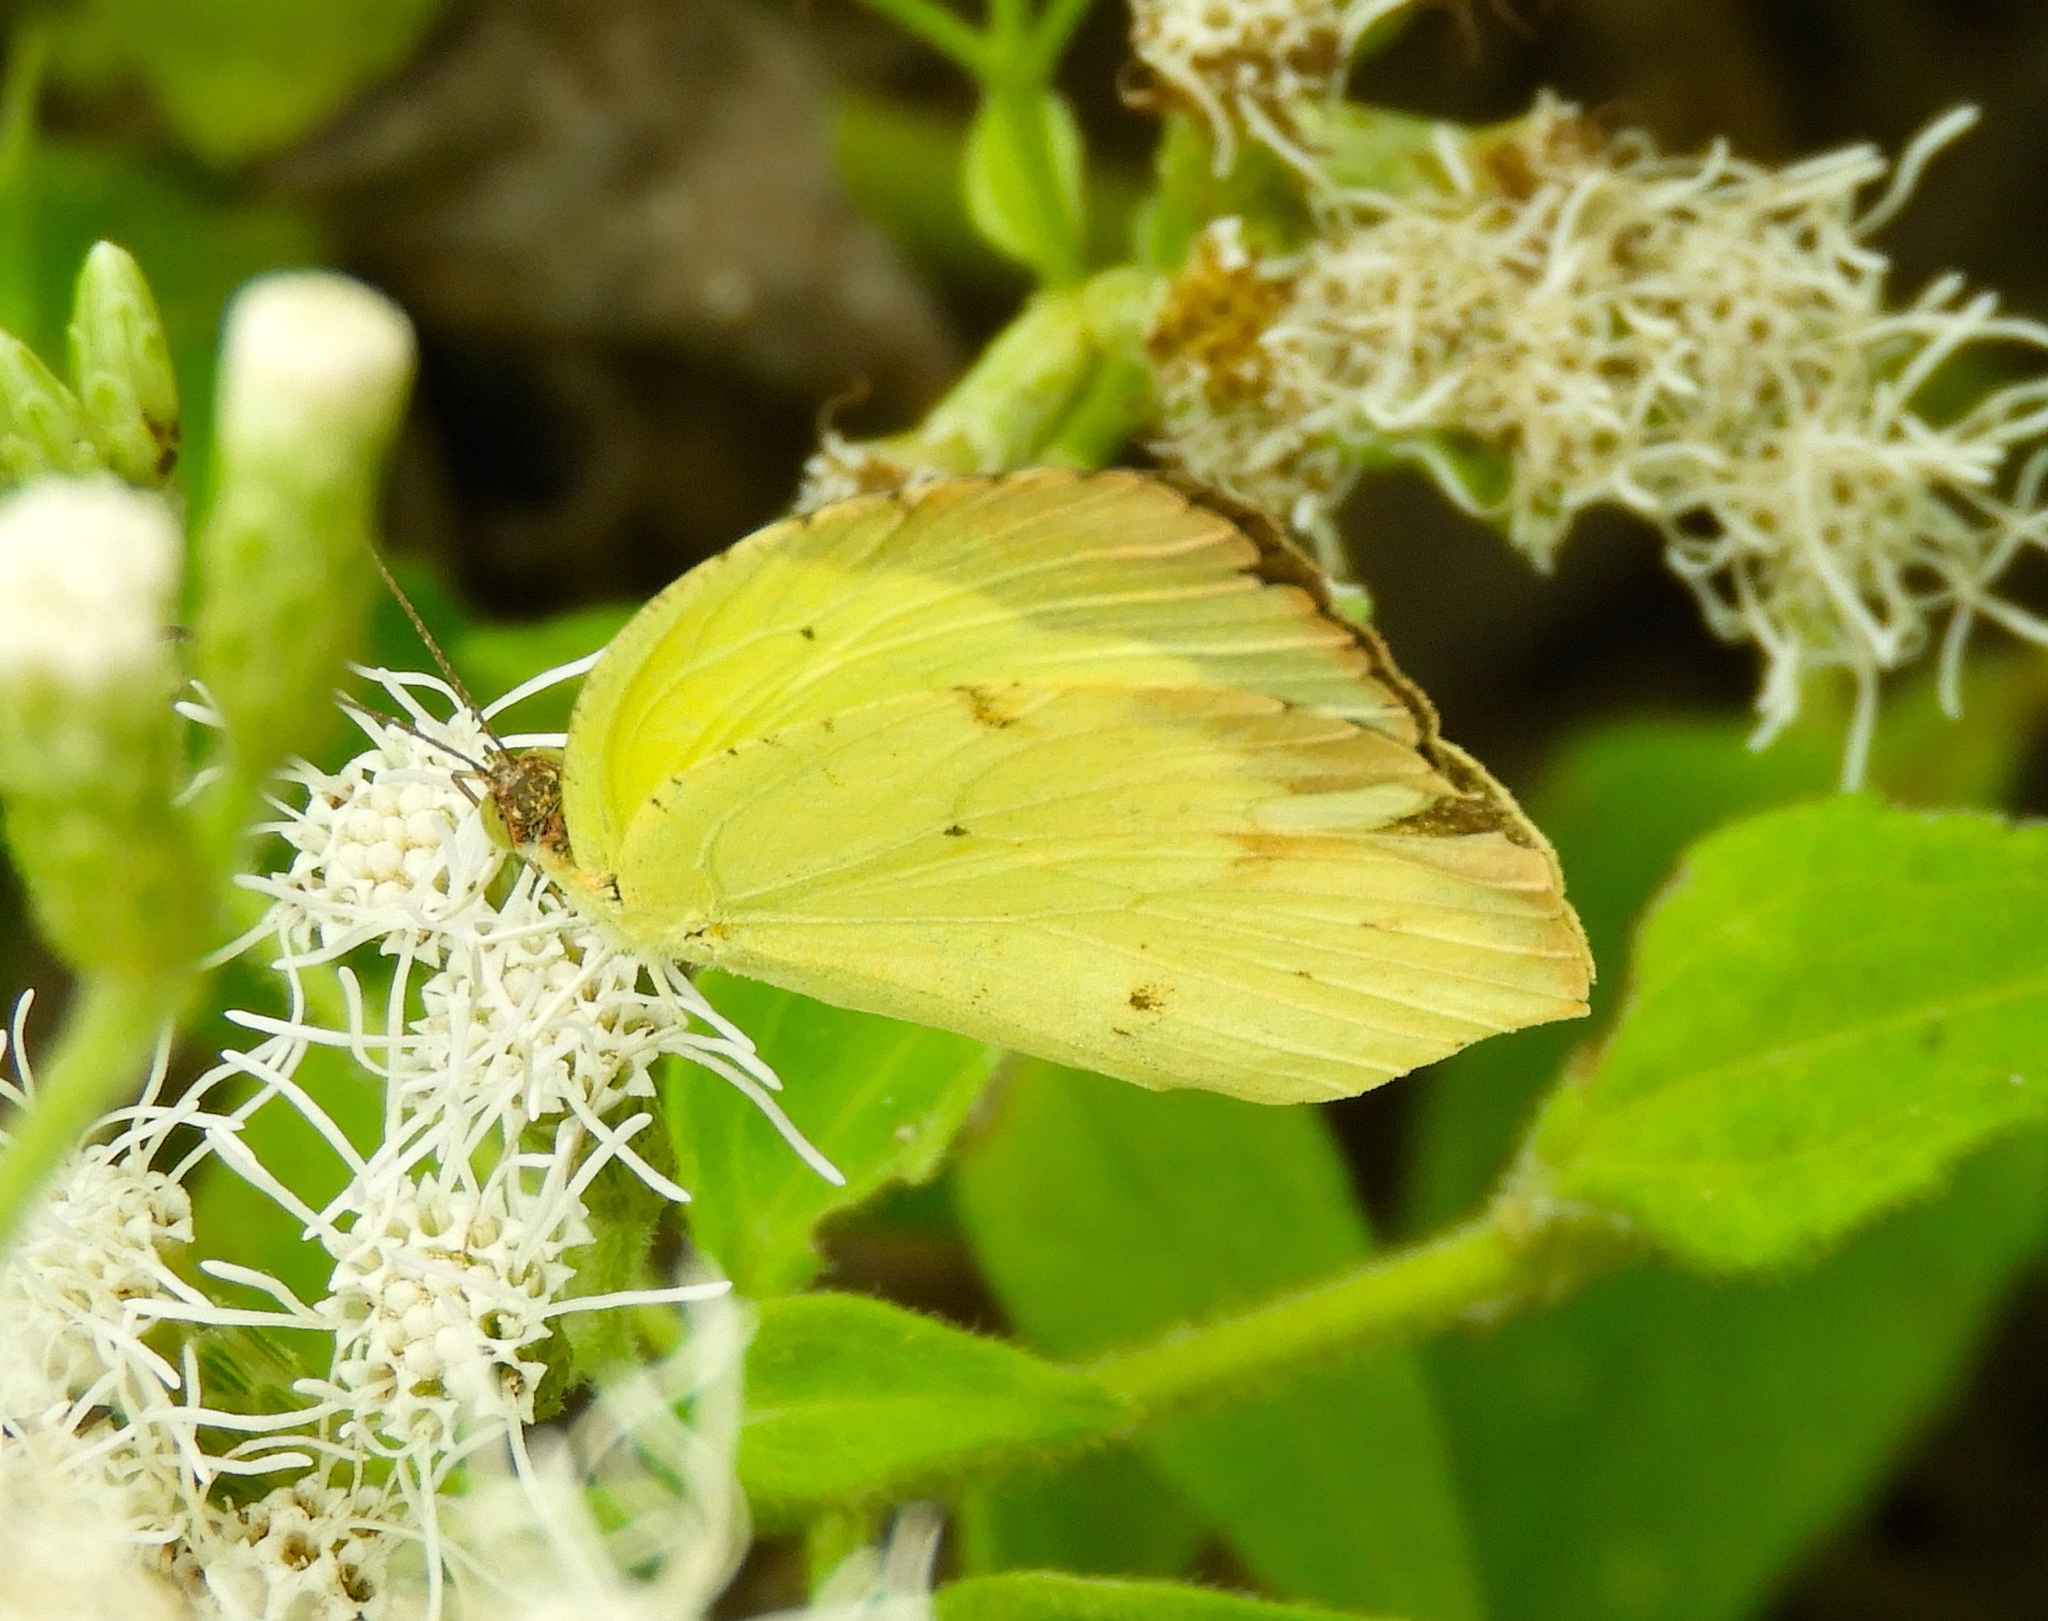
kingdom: Animalia
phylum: Arthropoda
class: Insecta
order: Lepidoptera
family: Pieridae
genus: Abaeis
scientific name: Abaeis boisduvaliana
